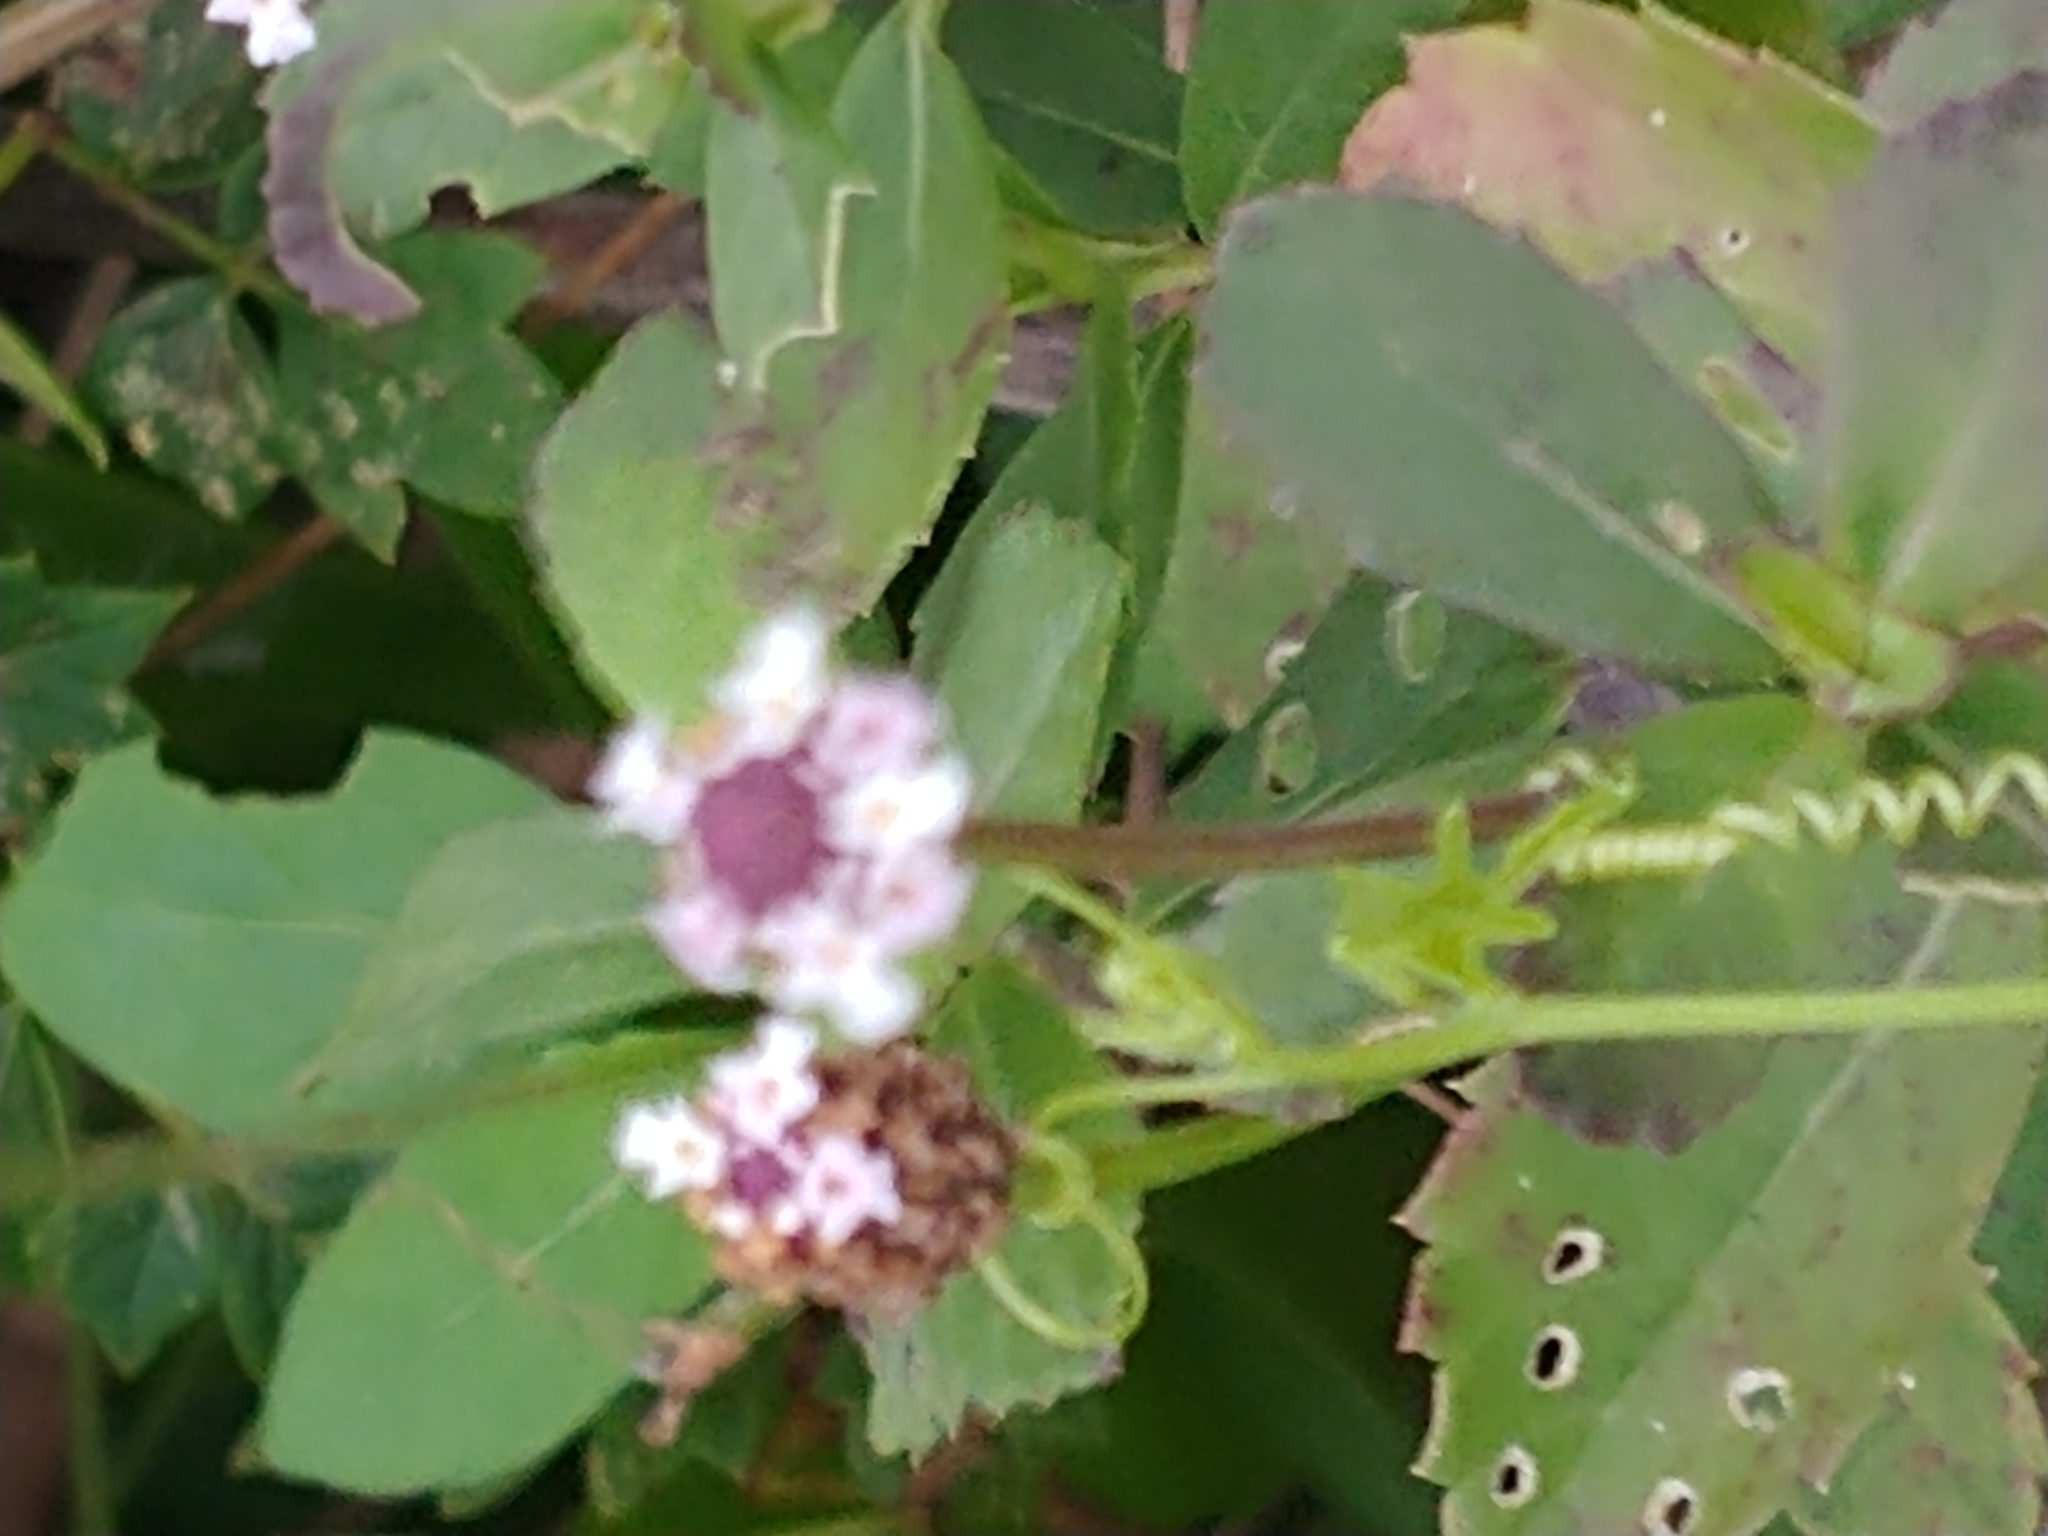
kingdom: Plantae
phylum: Tracheophyta
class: Magnoliopsida
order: Lamiales
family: Verbenaceae
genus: Phyla
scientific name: Phyla nodiflora
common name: Frogfruit
